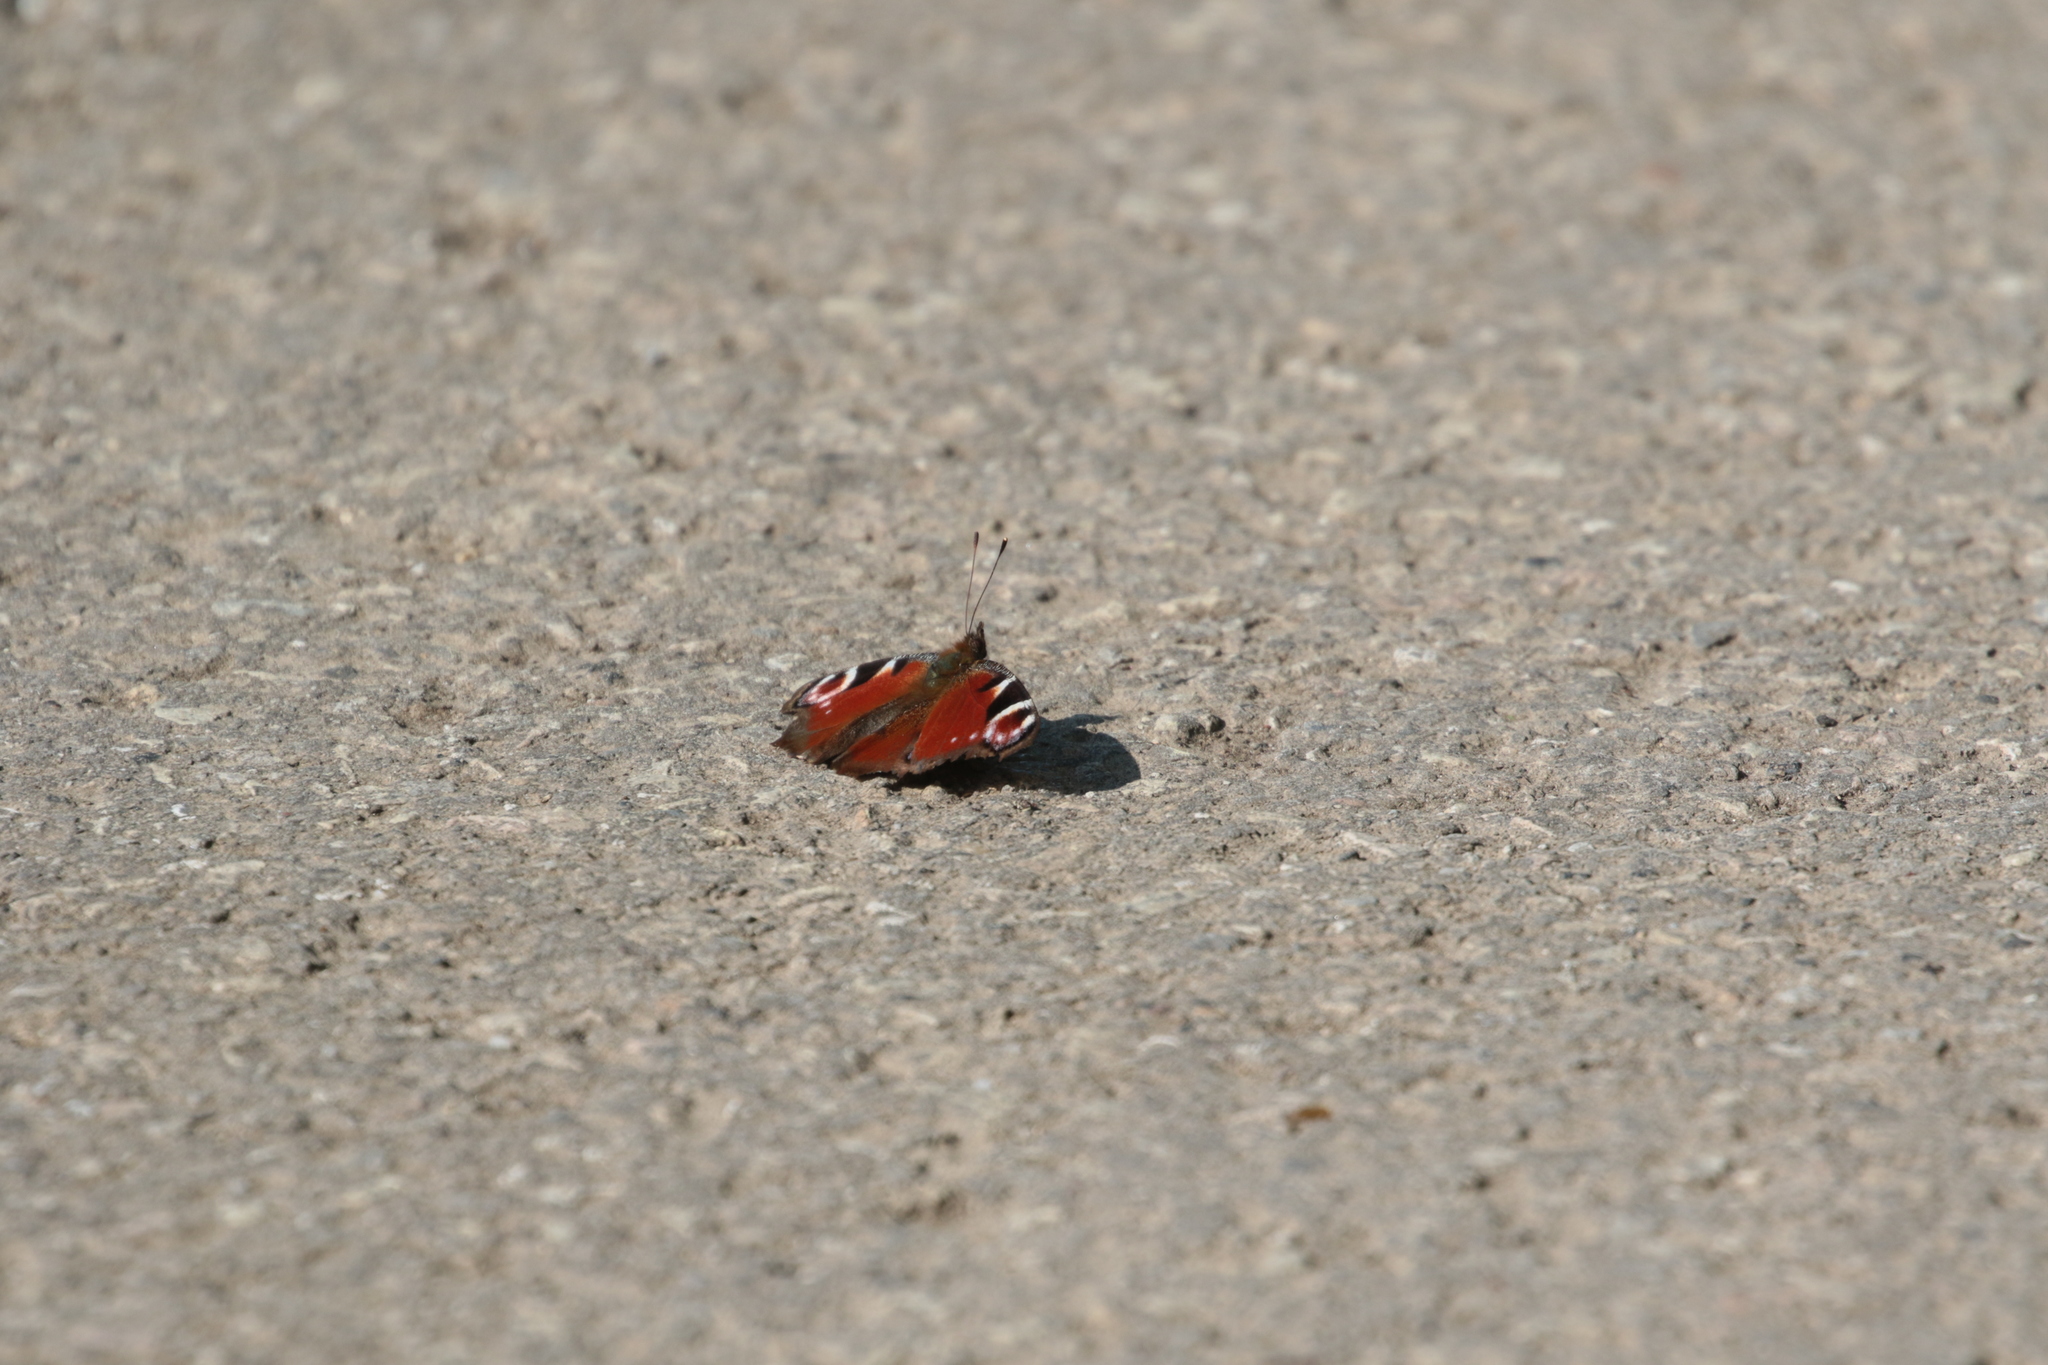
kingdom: Animalia
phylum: Arthropoda
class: Insecta
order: Lepidoptera
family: Nymphalidae
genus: Aglais
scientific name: Aglais io
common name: Peacock
